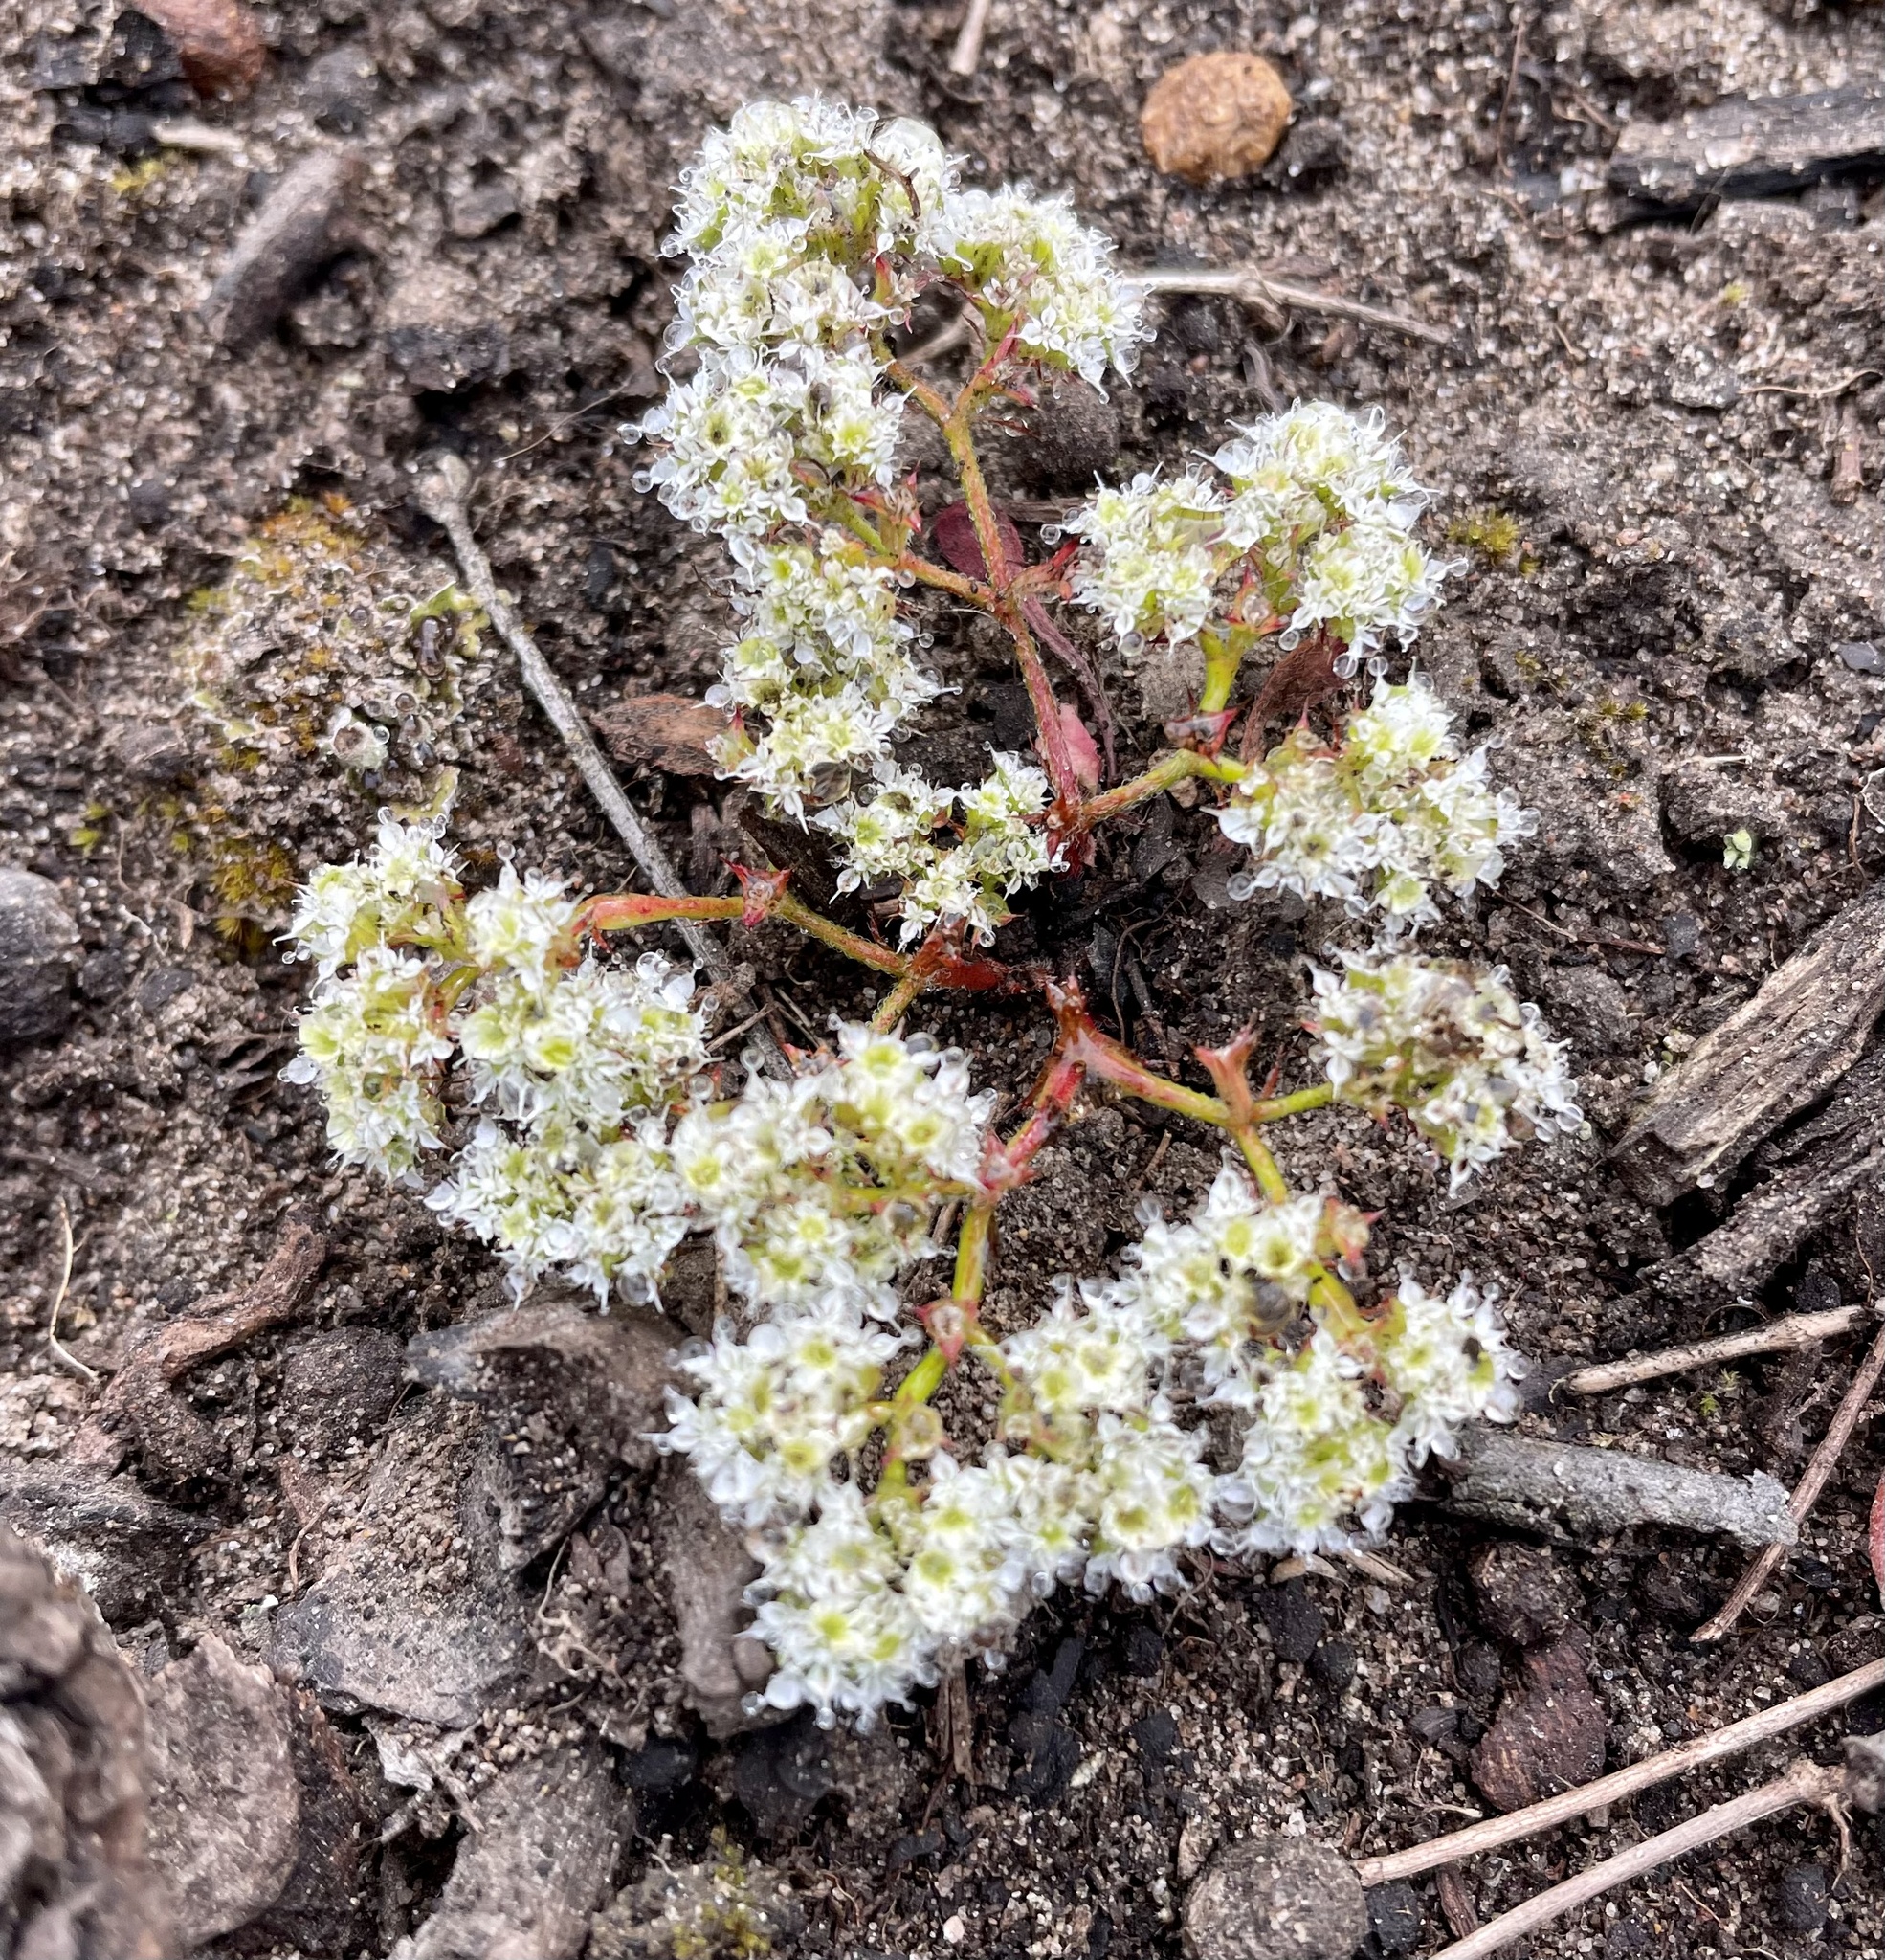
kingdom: Plantae
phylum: Tracheophyta
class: Magnoliopsida
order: Caryophyllales
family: Polygonaceae
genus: Chorizanthe
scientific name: Chorizanthe diffusa
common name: Diffuse spineflower
